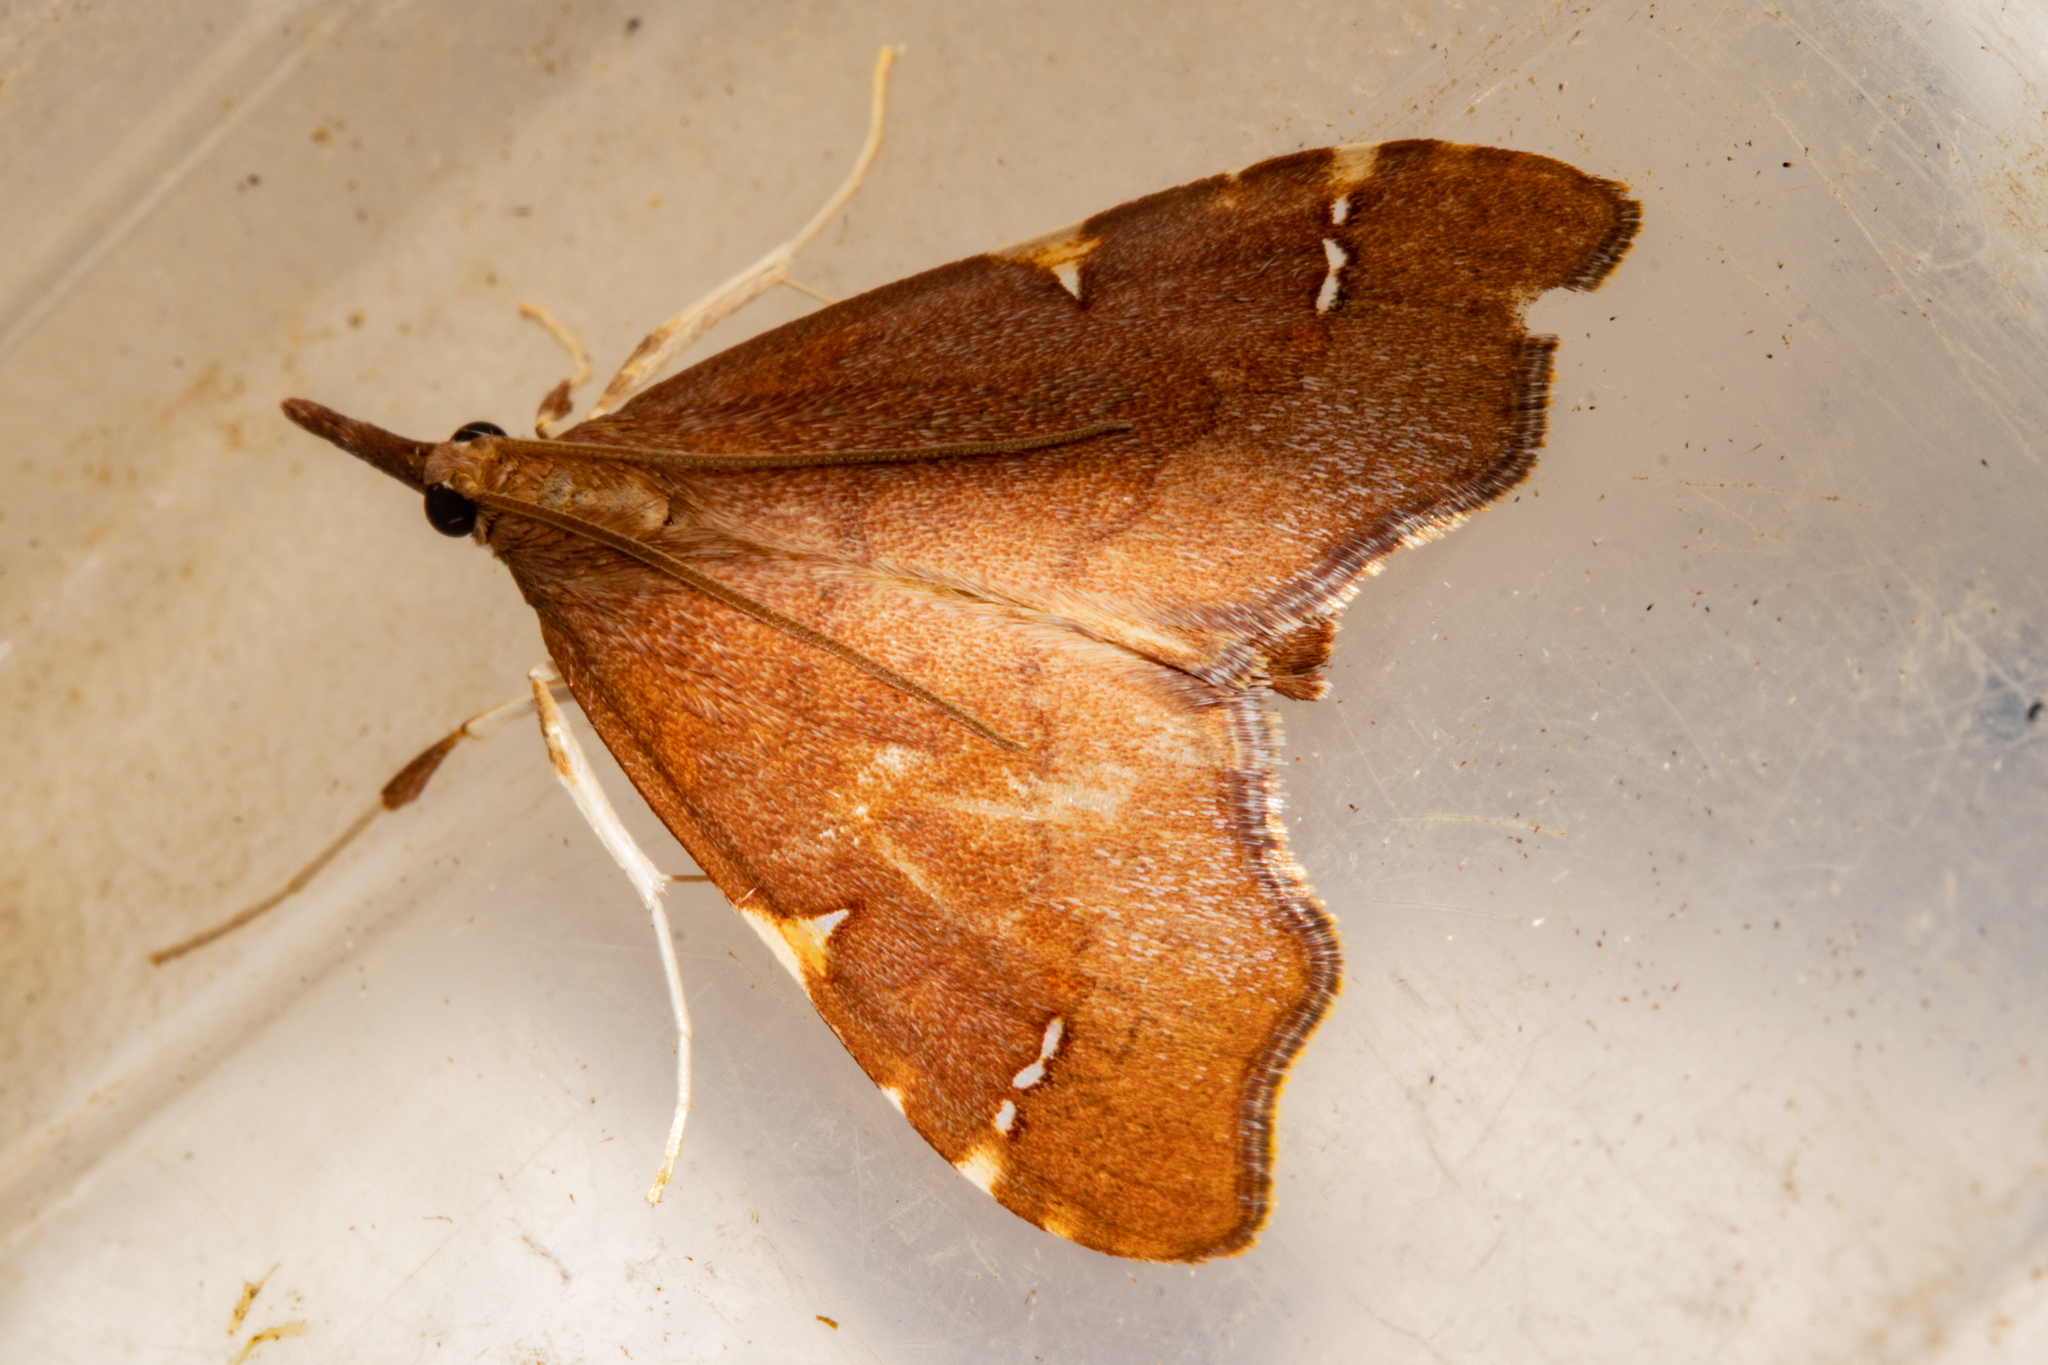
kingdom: Animalia
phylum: Arthropoda
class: Insecta
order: Lepidoptera
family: Crambidae
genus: Deana
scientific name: Deana hybreasalis
